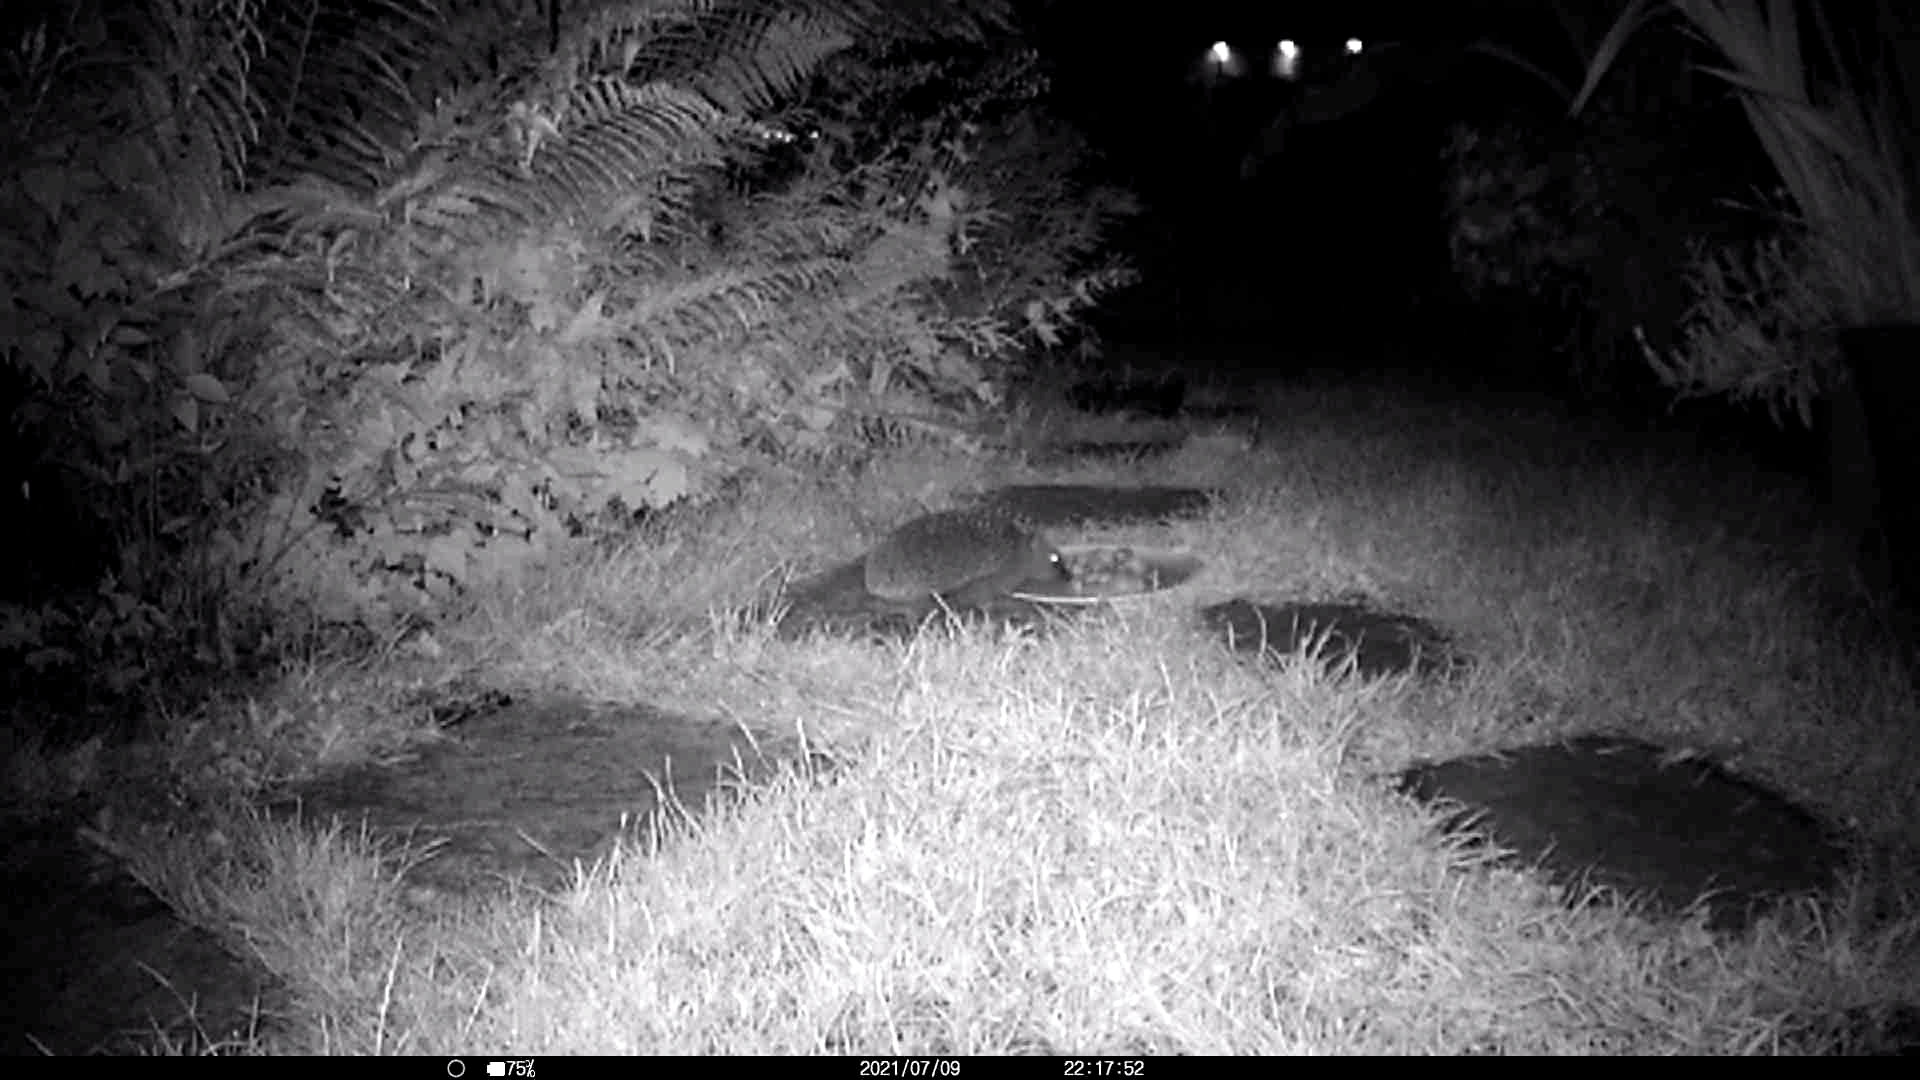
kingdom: Animalia
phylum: Chordata
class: Mammalia
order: Erinaceomorpha
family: Erinaceidae
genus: Erinaceus
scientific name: Erinaceus europaeus
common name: West european hedgehog
